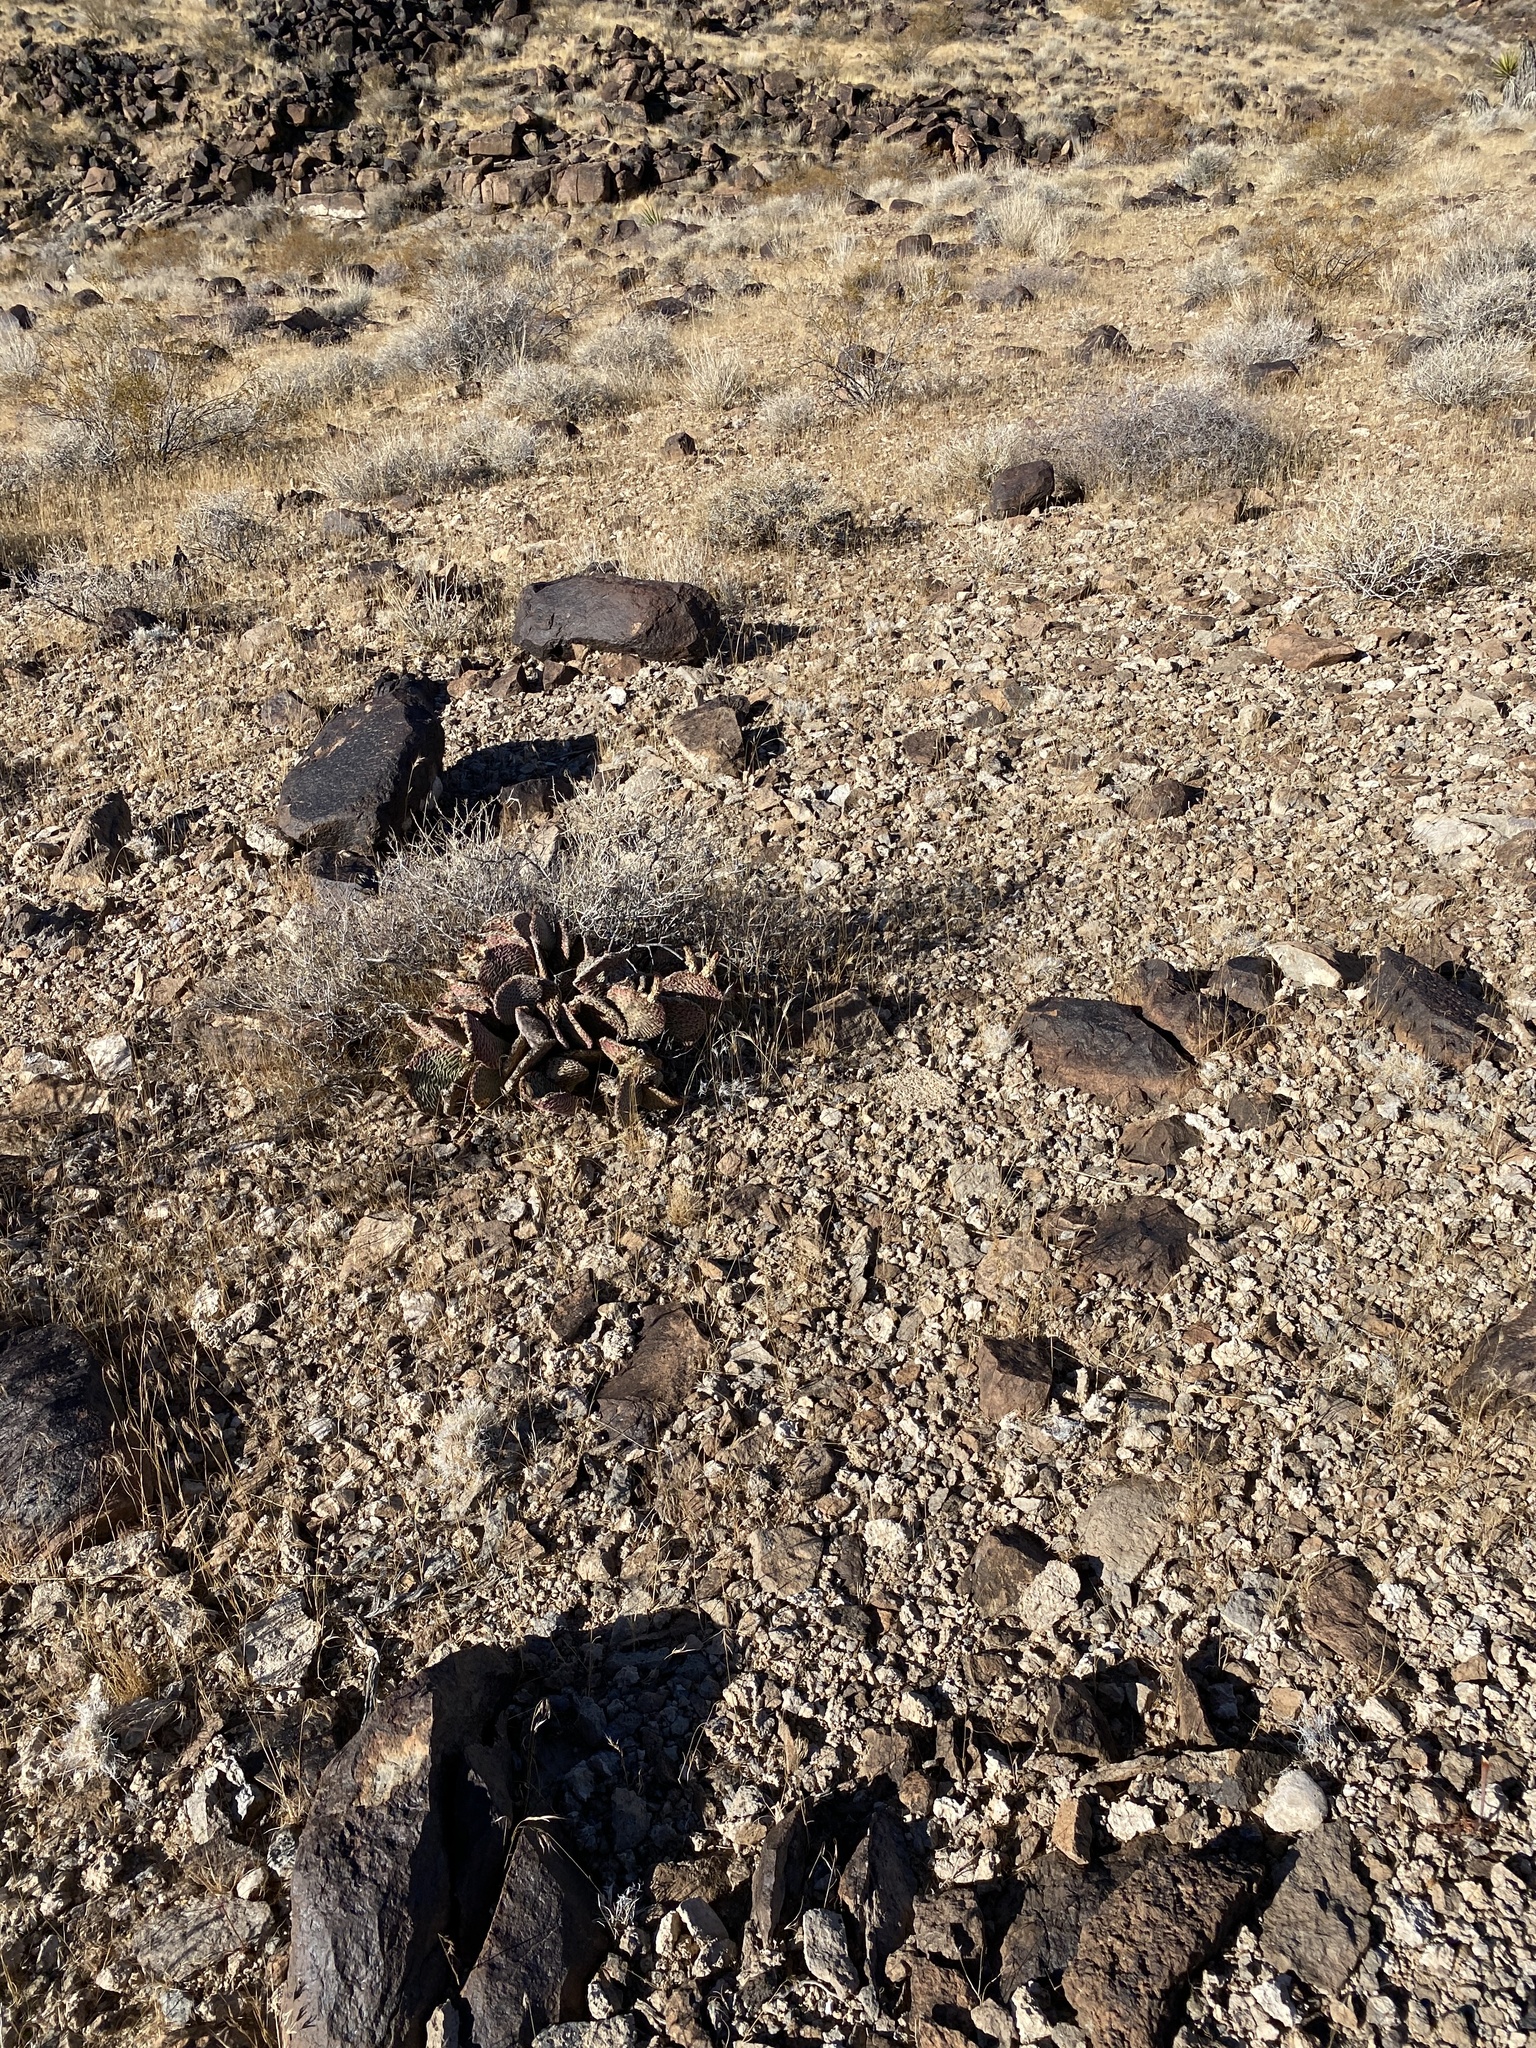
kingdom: Plantae
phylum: Tracheophyta
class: Magnoliopsida
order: Caryophyllales
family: Cactaceae
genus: Opuntia
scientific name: Opuntia basilaris
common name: Beavertail prickly-pear
